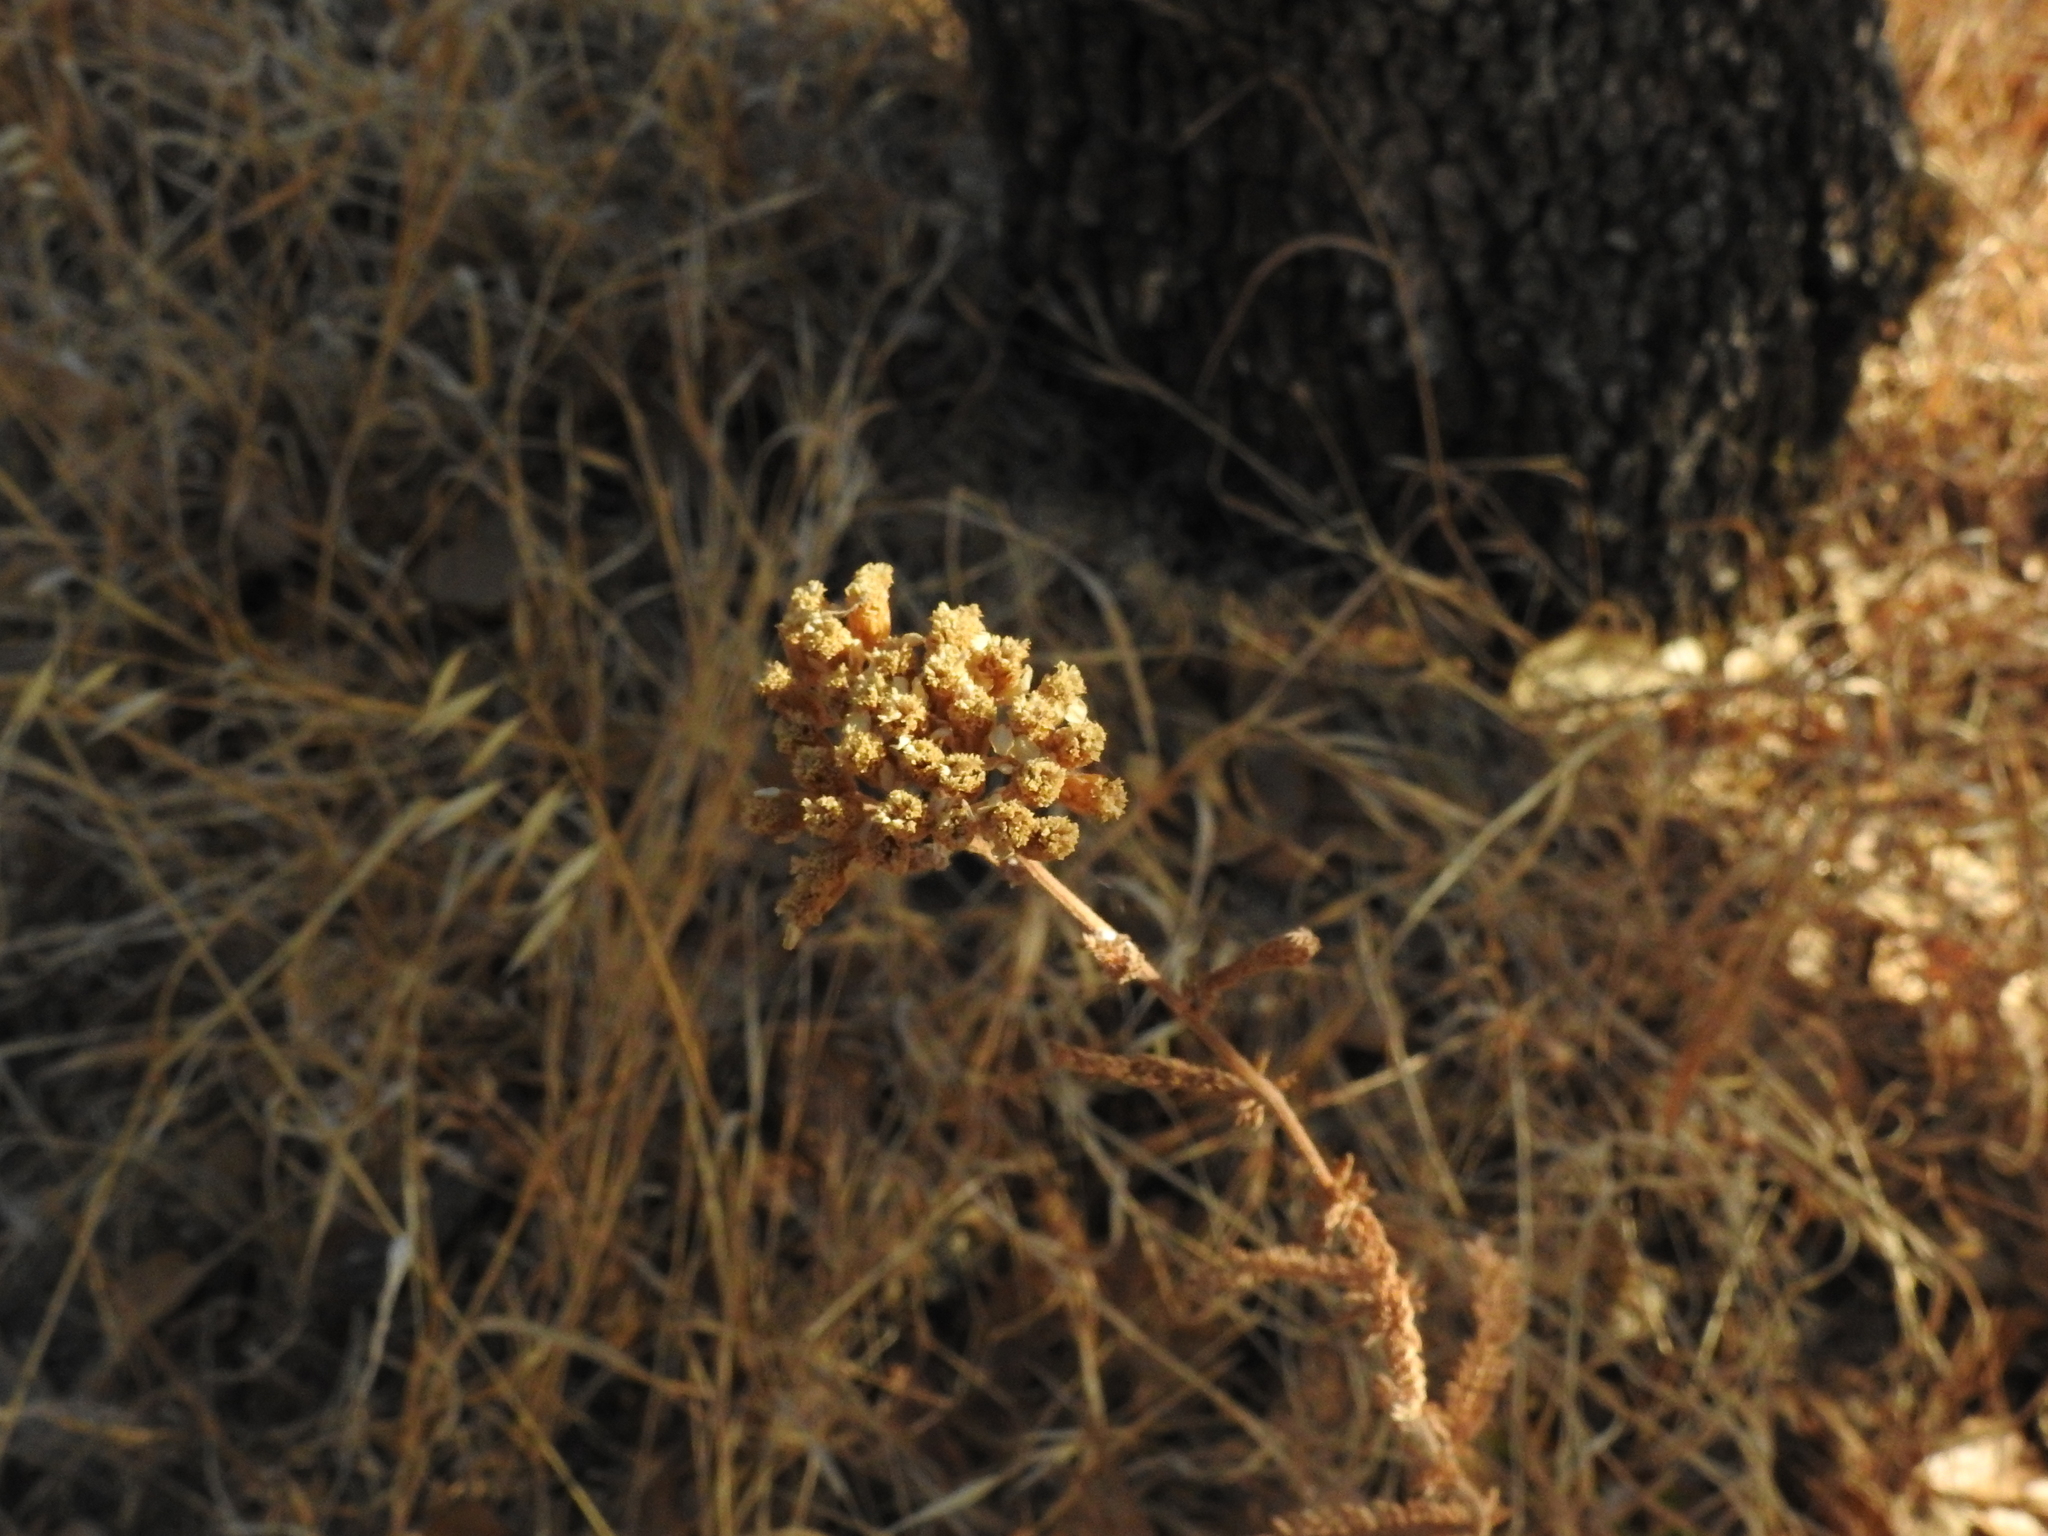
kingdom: Plantae
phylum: Tracheophyta
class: Magnoliopsida
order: Asterales
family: Asteraceae
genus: Achillea
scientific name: Achillea millefolium
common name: Yarrow
